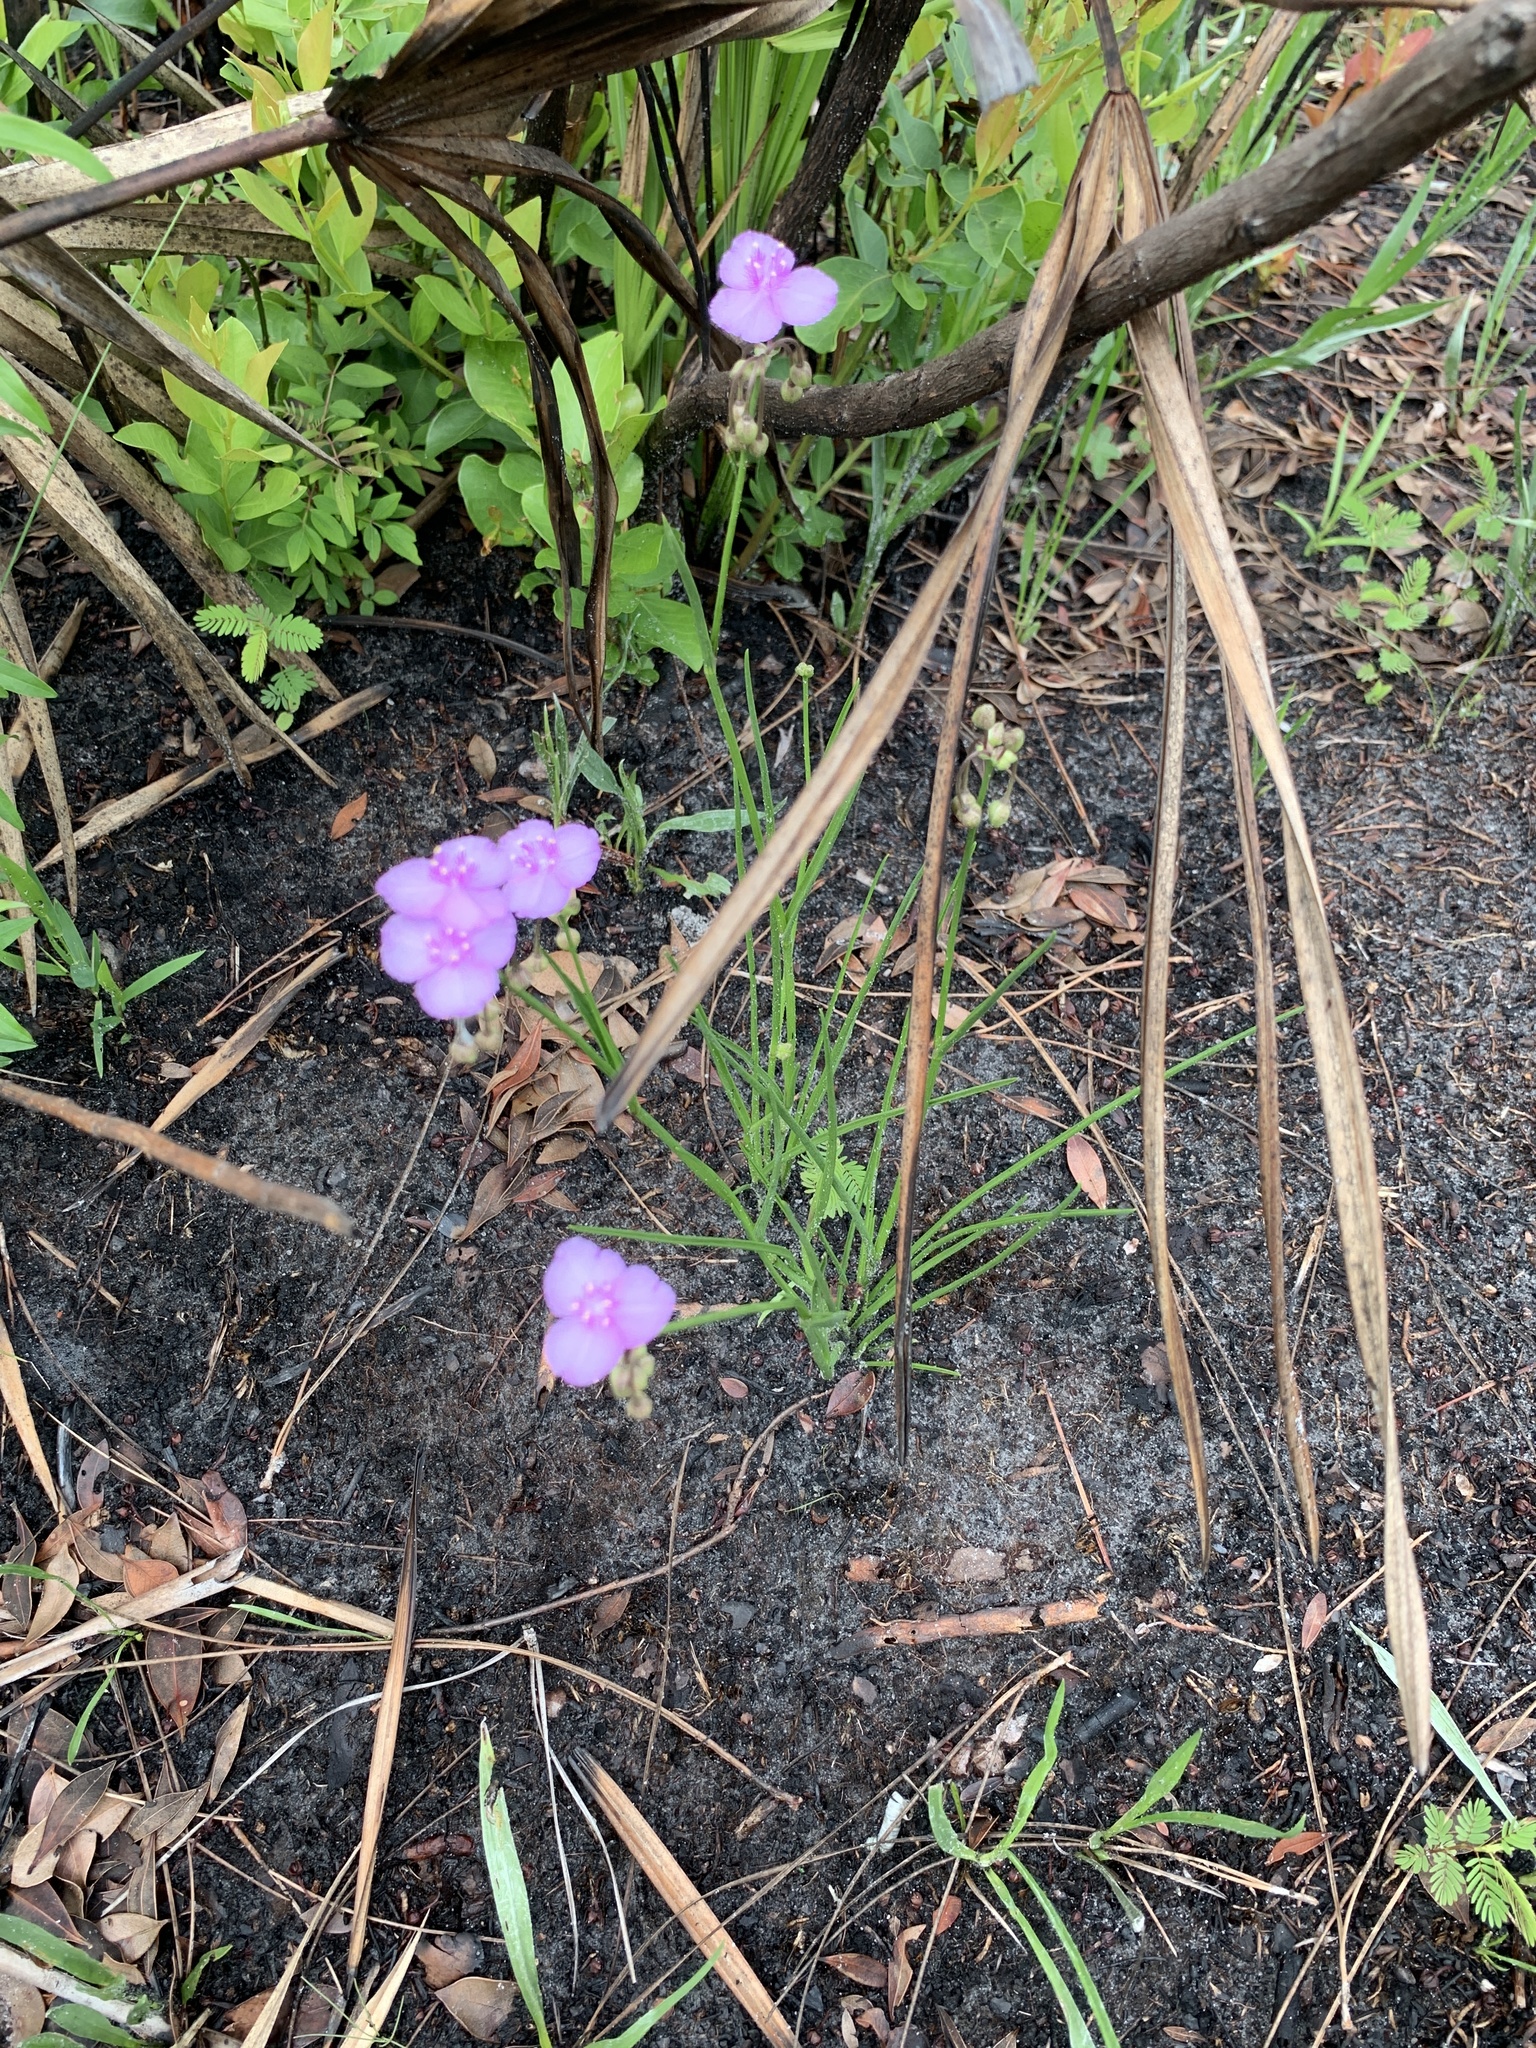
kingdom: Plantae
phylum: Tracheophyta
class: Liliopsida
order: Commelinales
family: Commelinaceae
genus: Callisia
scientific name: Callisia ornata
